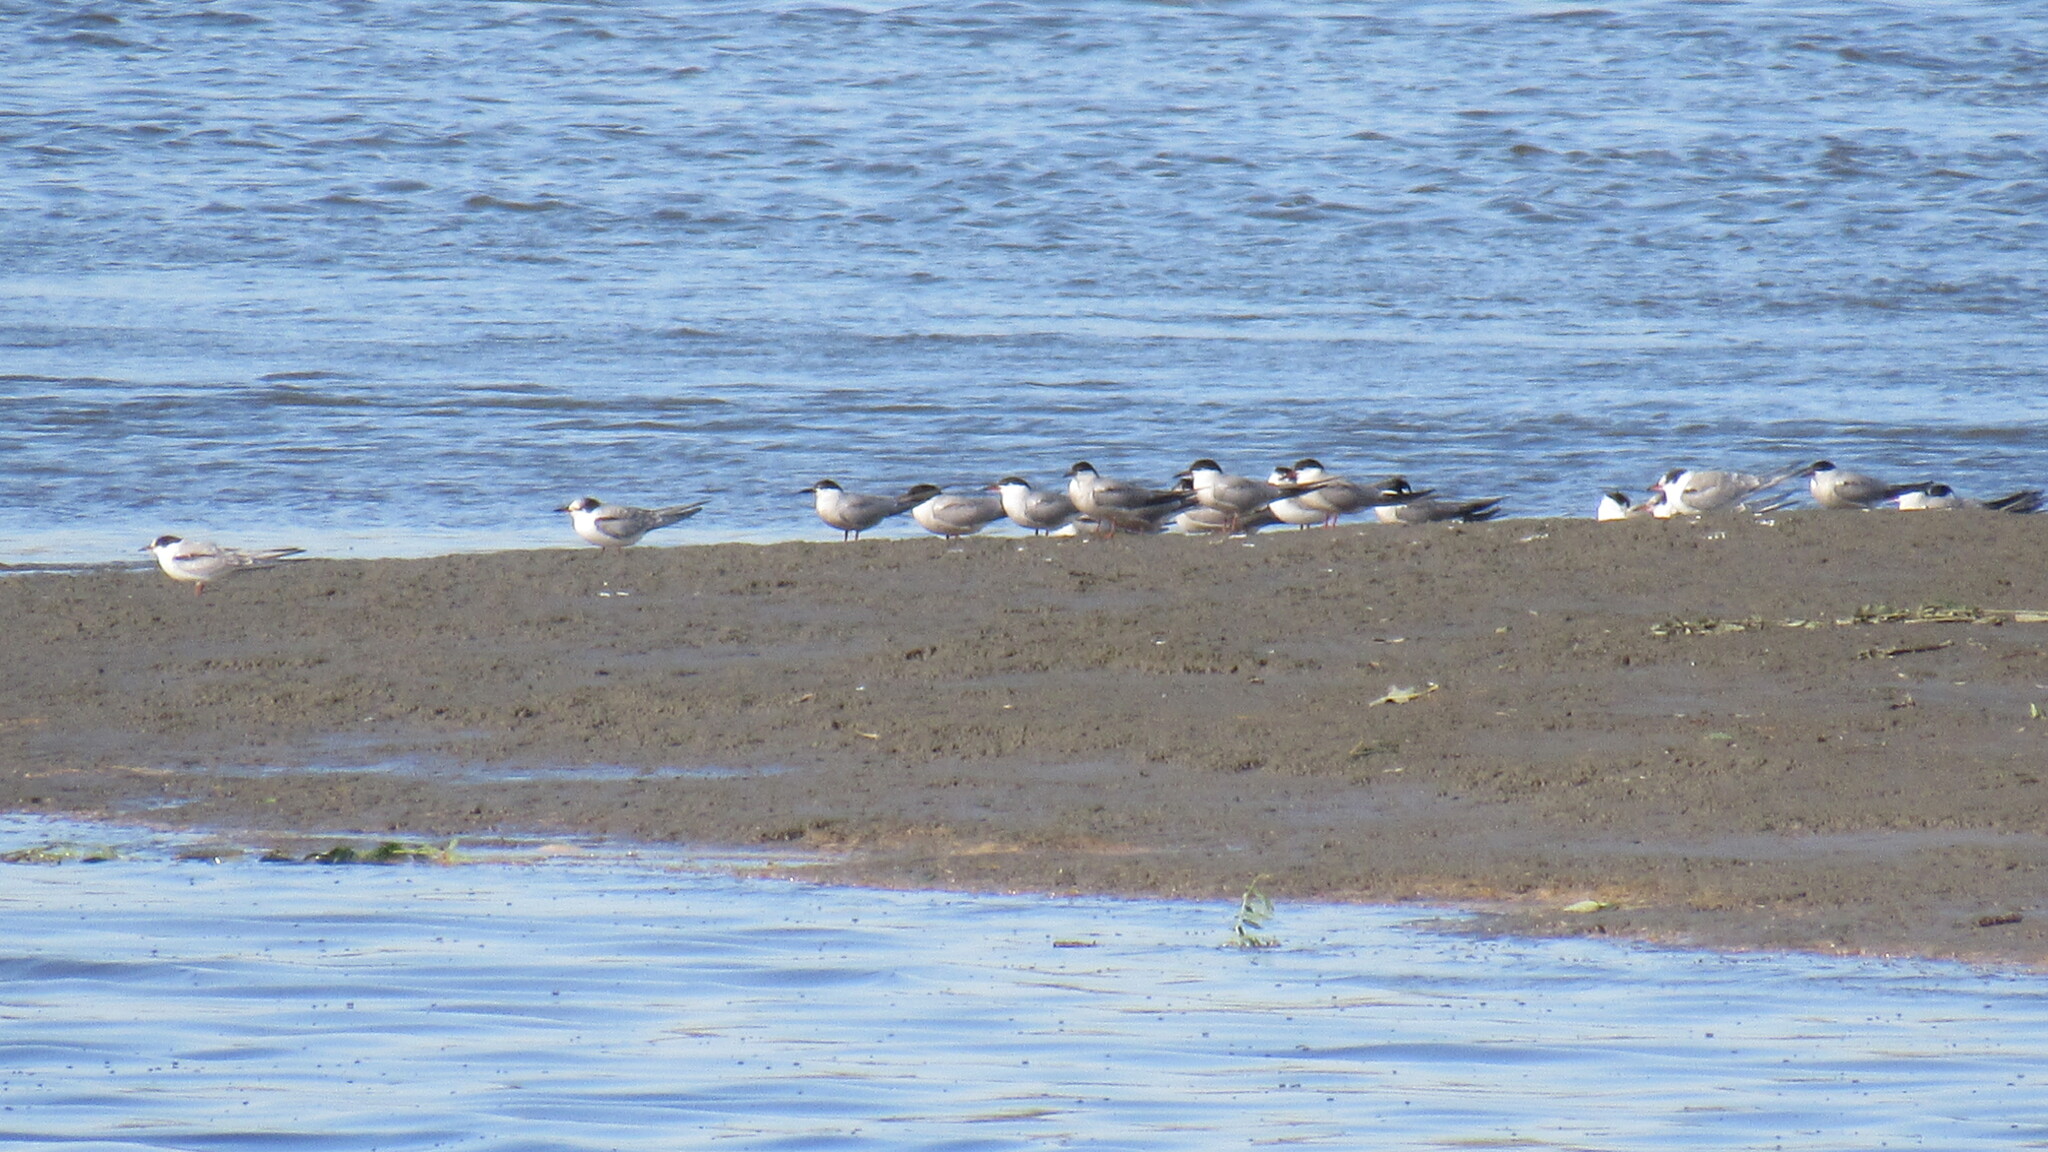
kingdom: Animalia
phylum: Chordata
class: Aves
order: Charadriiformes
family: Laridae
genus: Sterna
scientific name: Sterna hirundo
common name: Common tern
